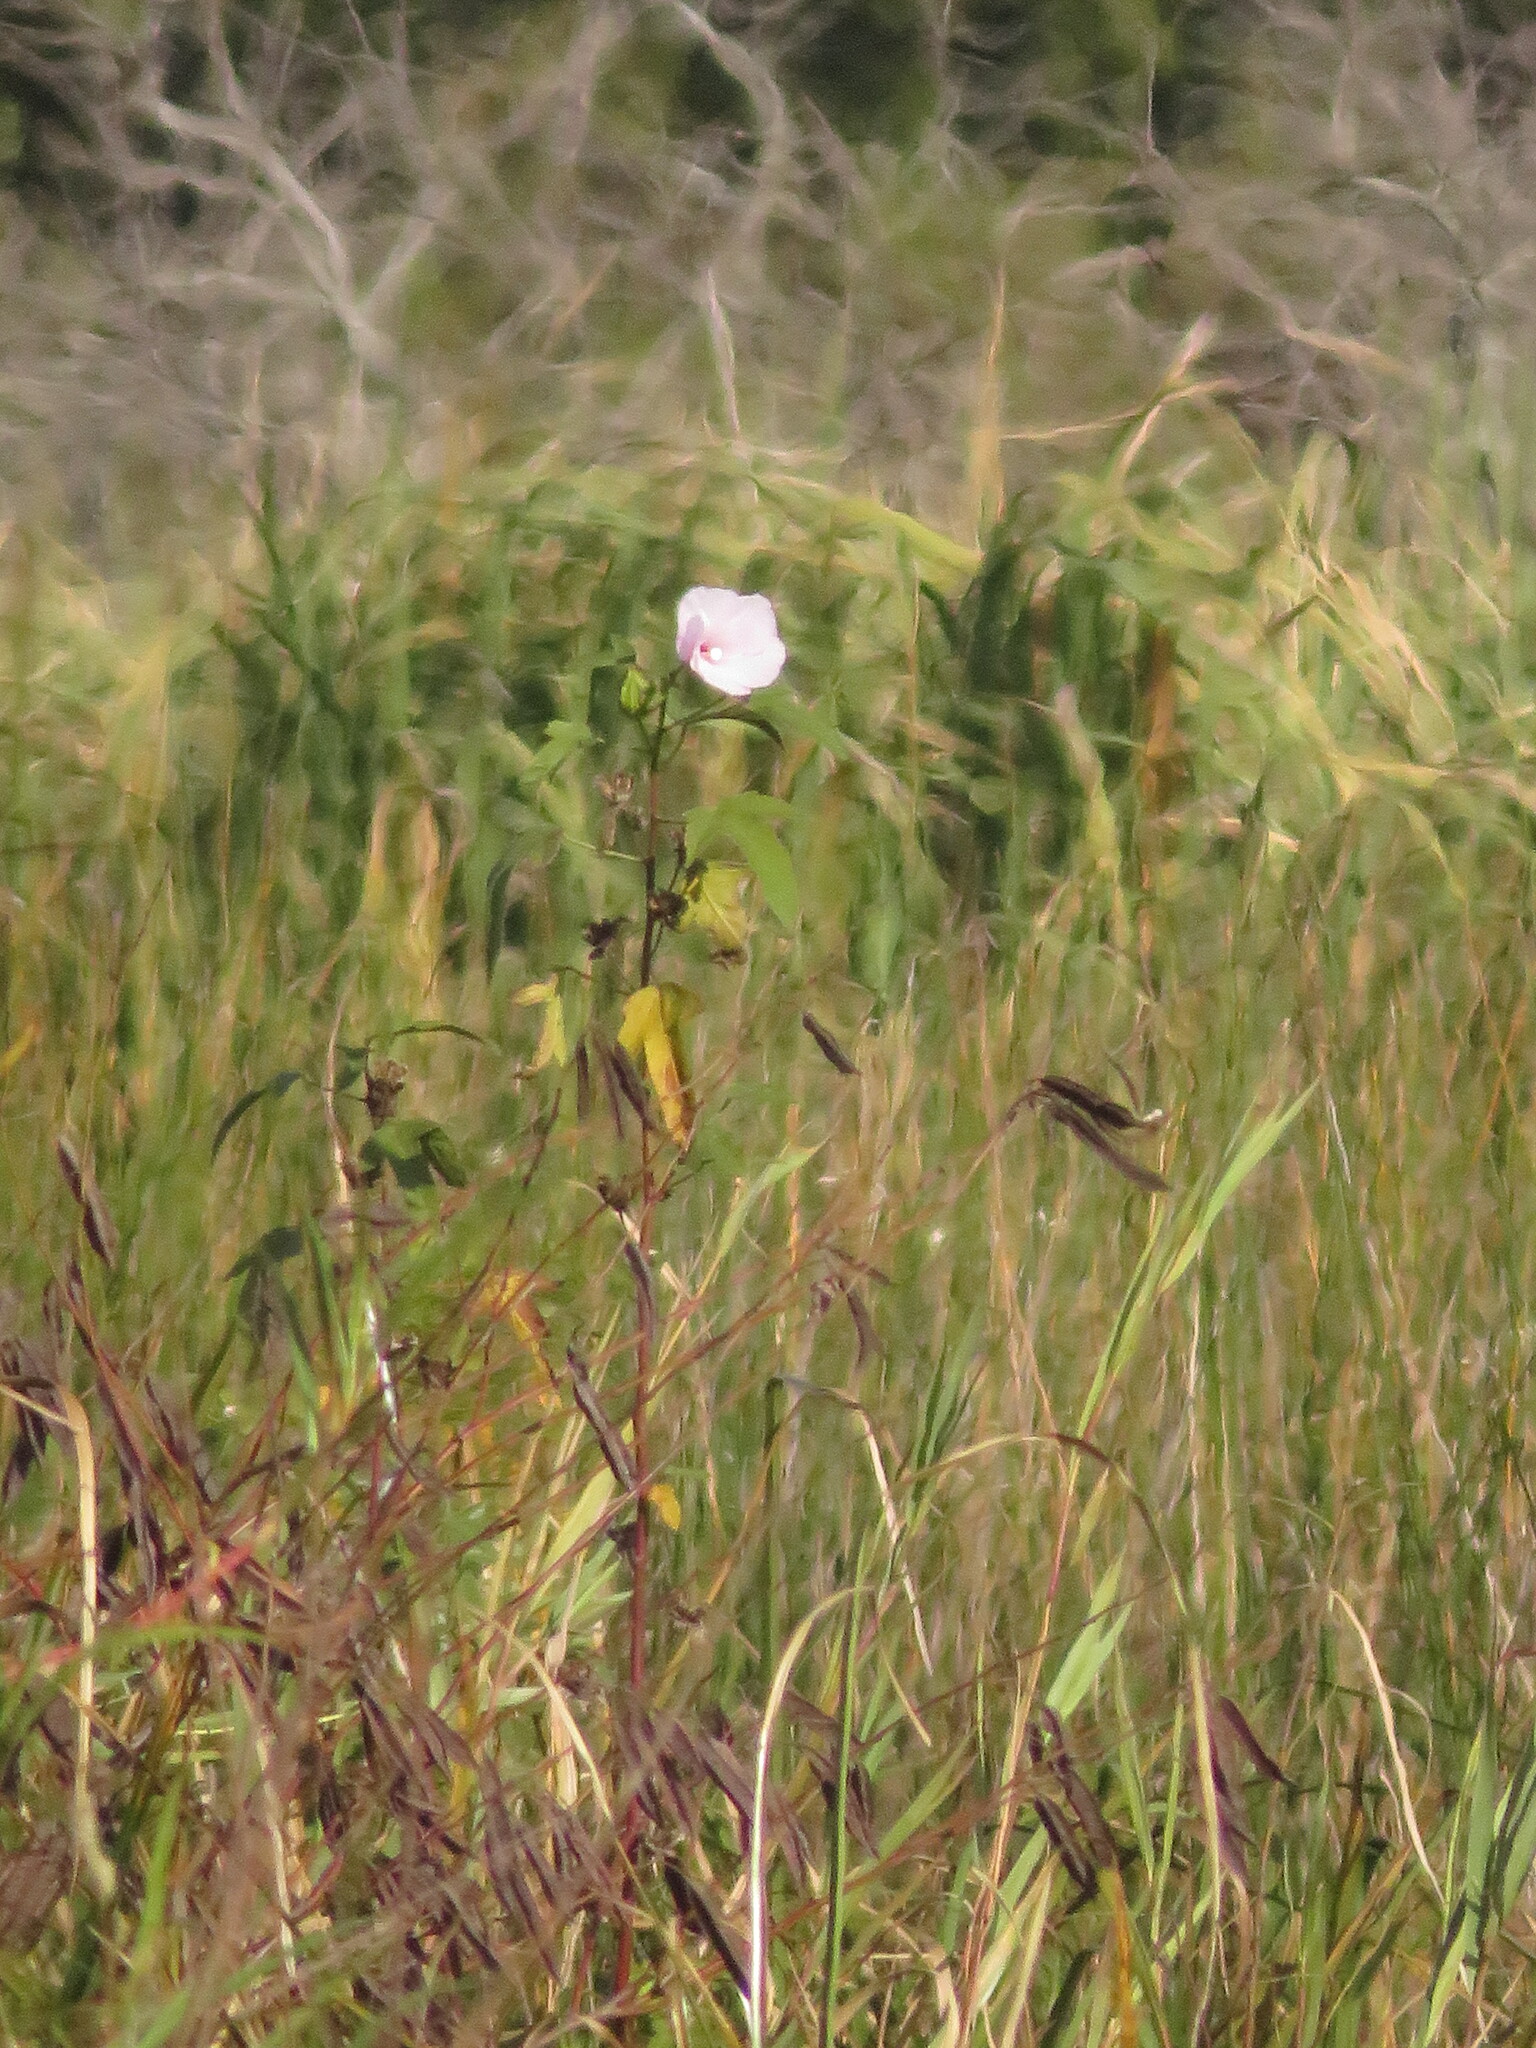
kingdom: Plantae
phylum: Tracheophyta
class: Magnoliopsida
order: Malvales
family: Malvaceae
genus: Hibiscus
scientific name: Hibiscus striatus
